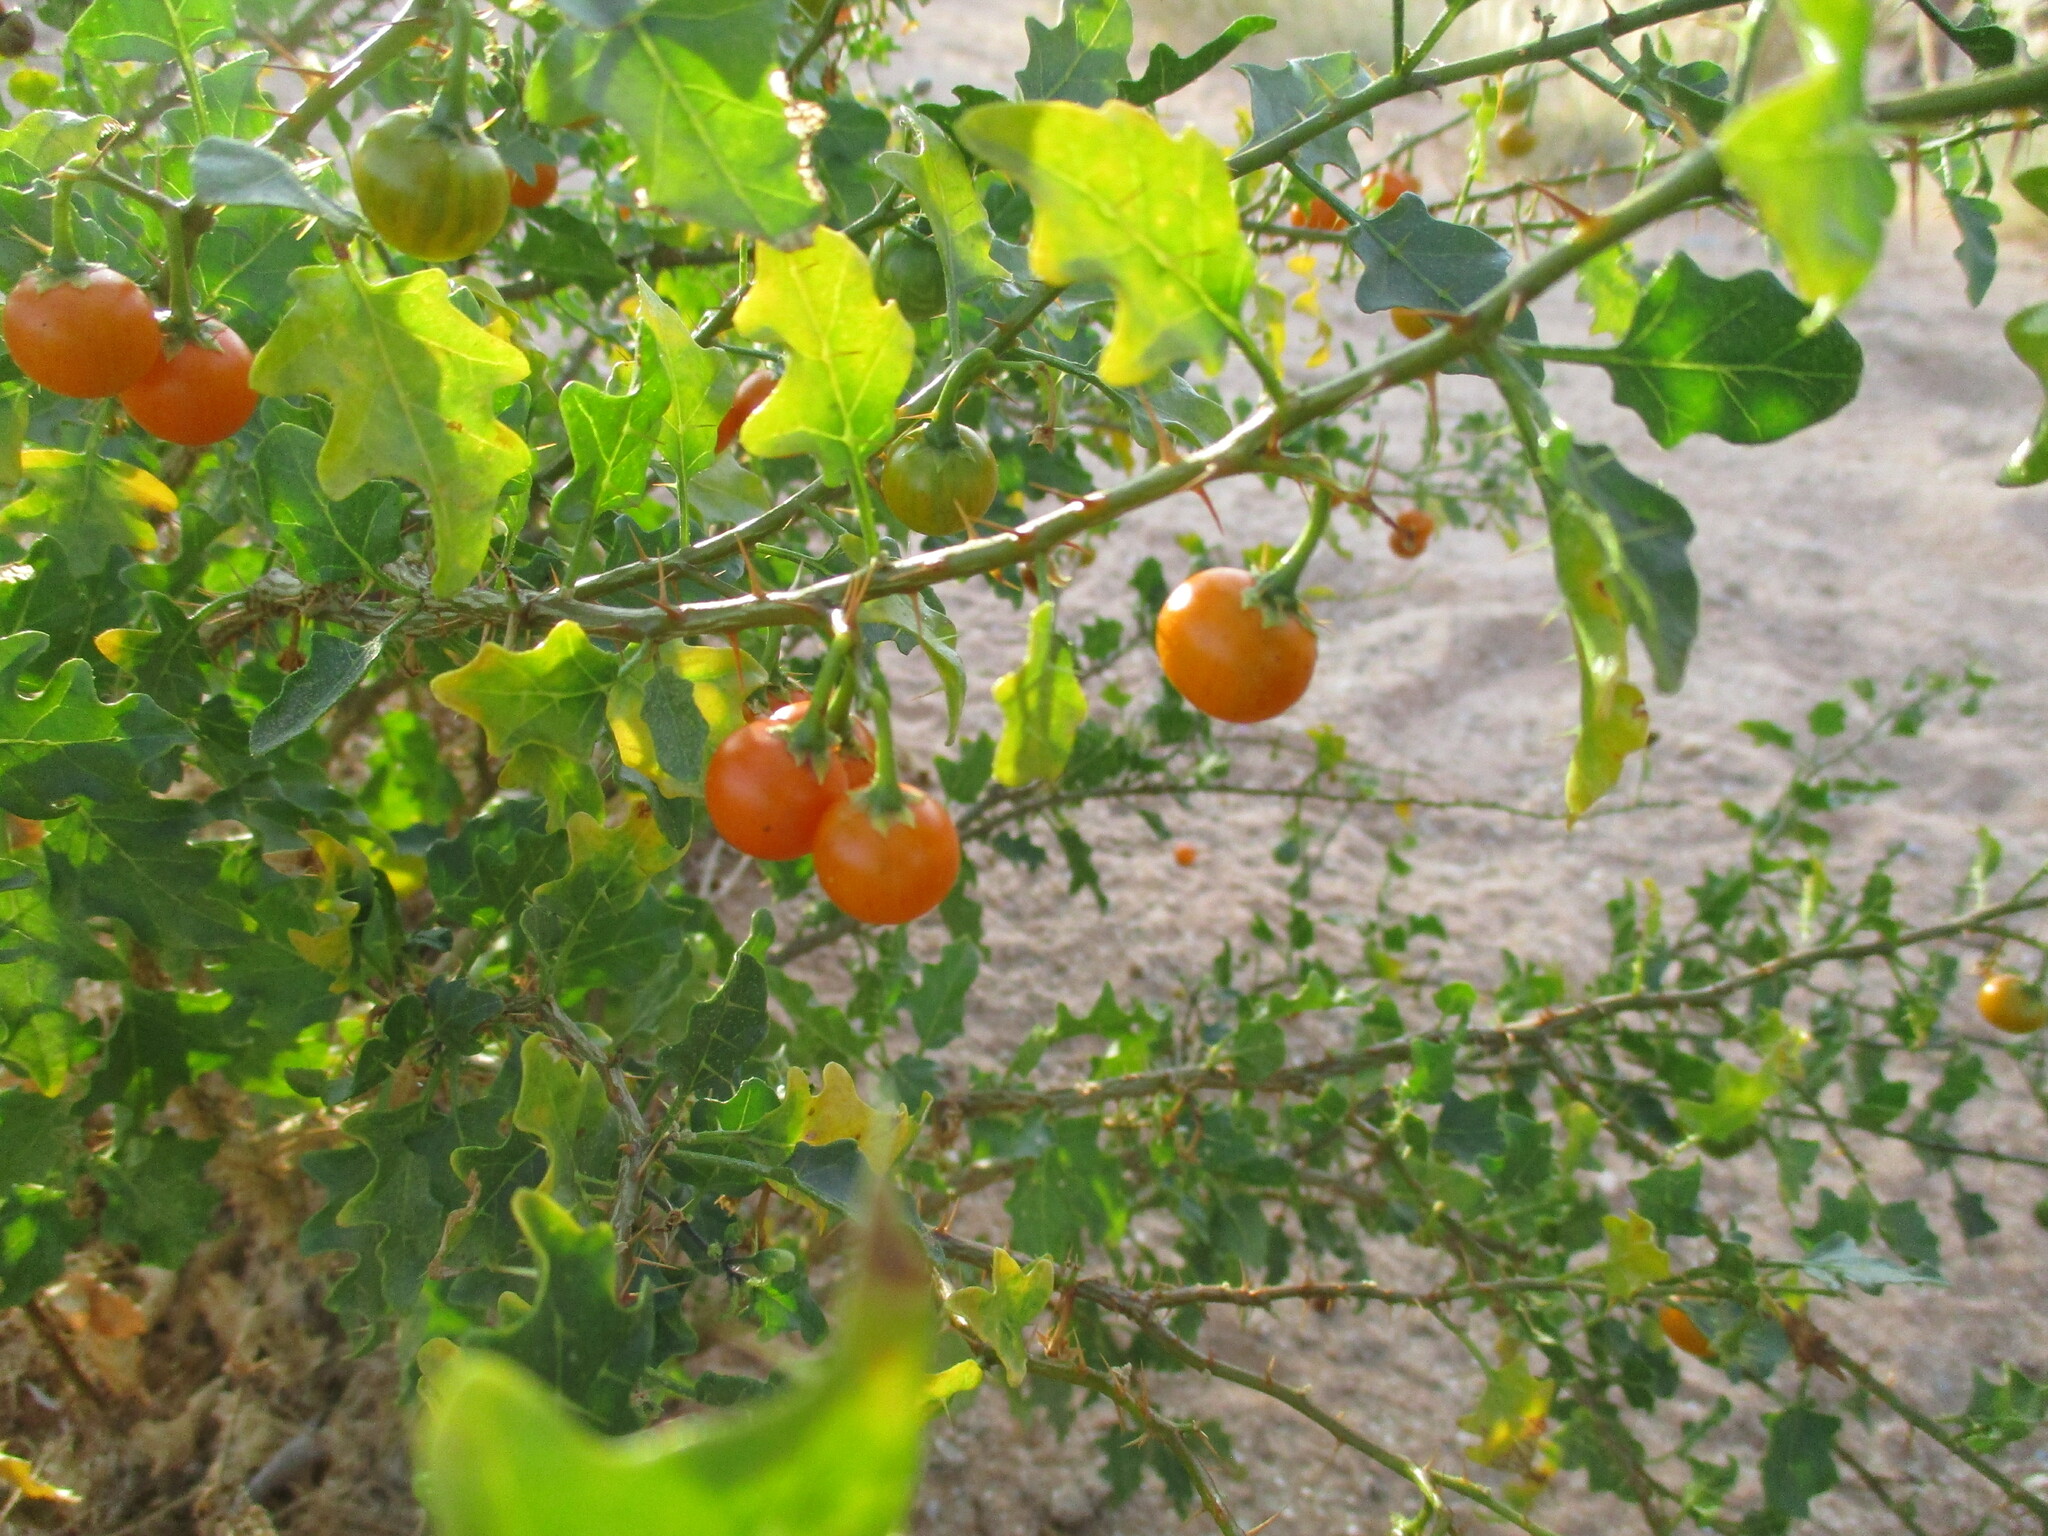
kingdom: Plantae
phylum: Tracheophyta
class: Magnoliopsida
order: Solanales
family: Solanaceae
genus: Solanum
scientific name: Solanum humile
